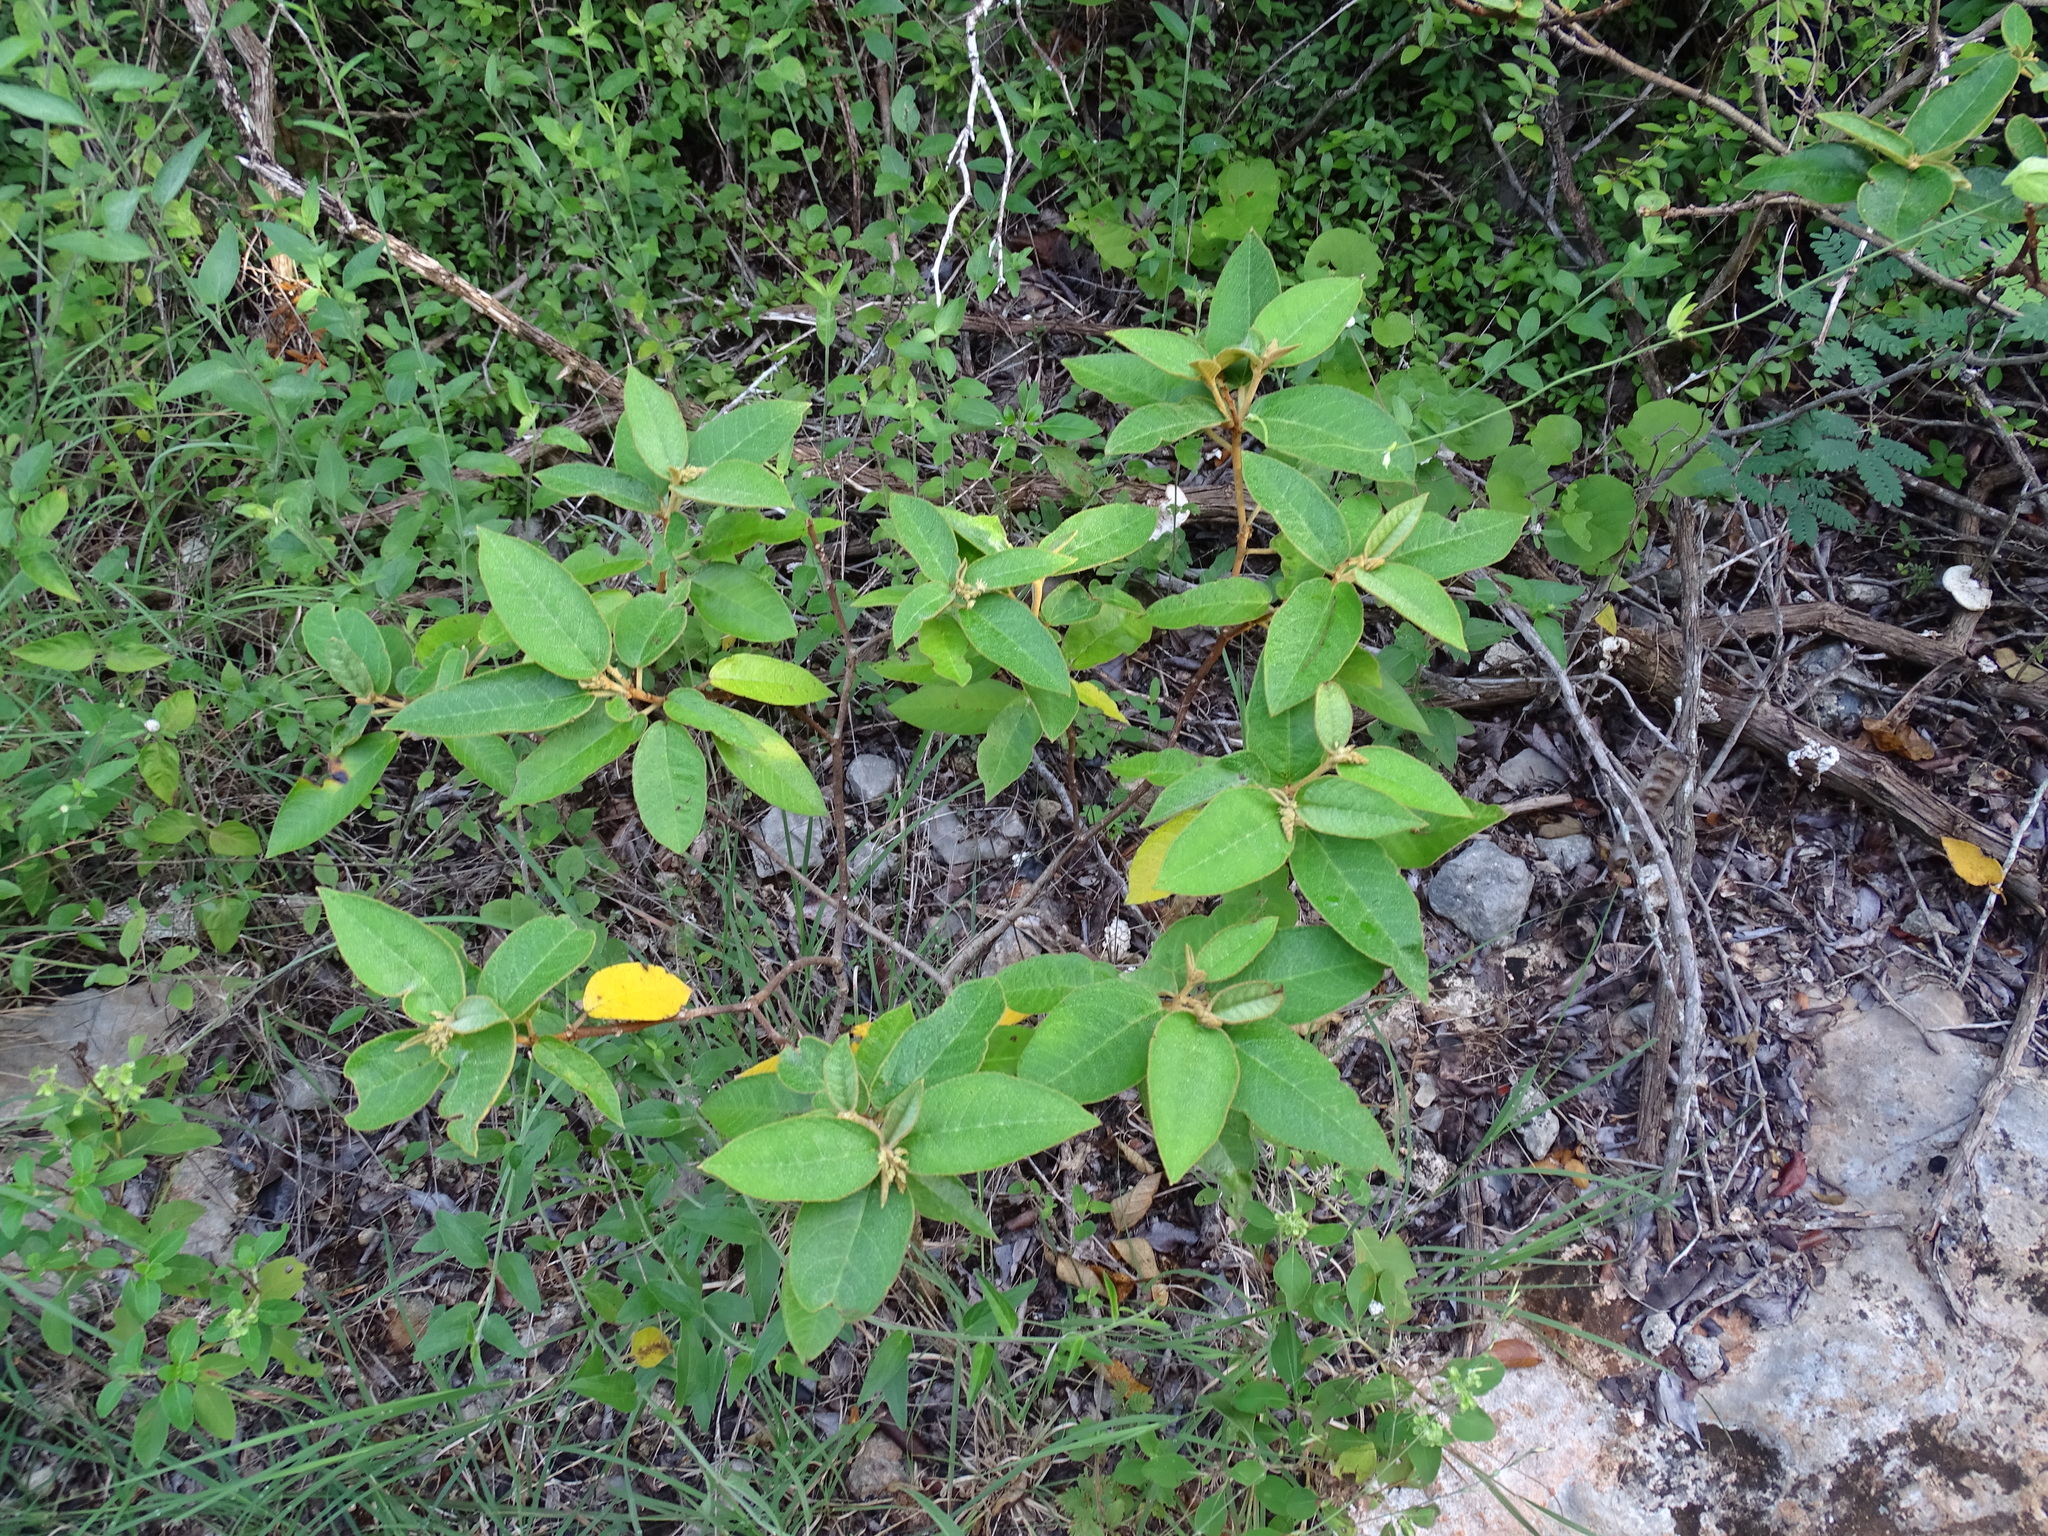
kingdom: Plantae
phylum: Tracheophyta
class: Magnoliopsida
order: Malpighiales
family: Euphorbiaceae
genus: Croton
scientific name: Croton peraeruginosus
